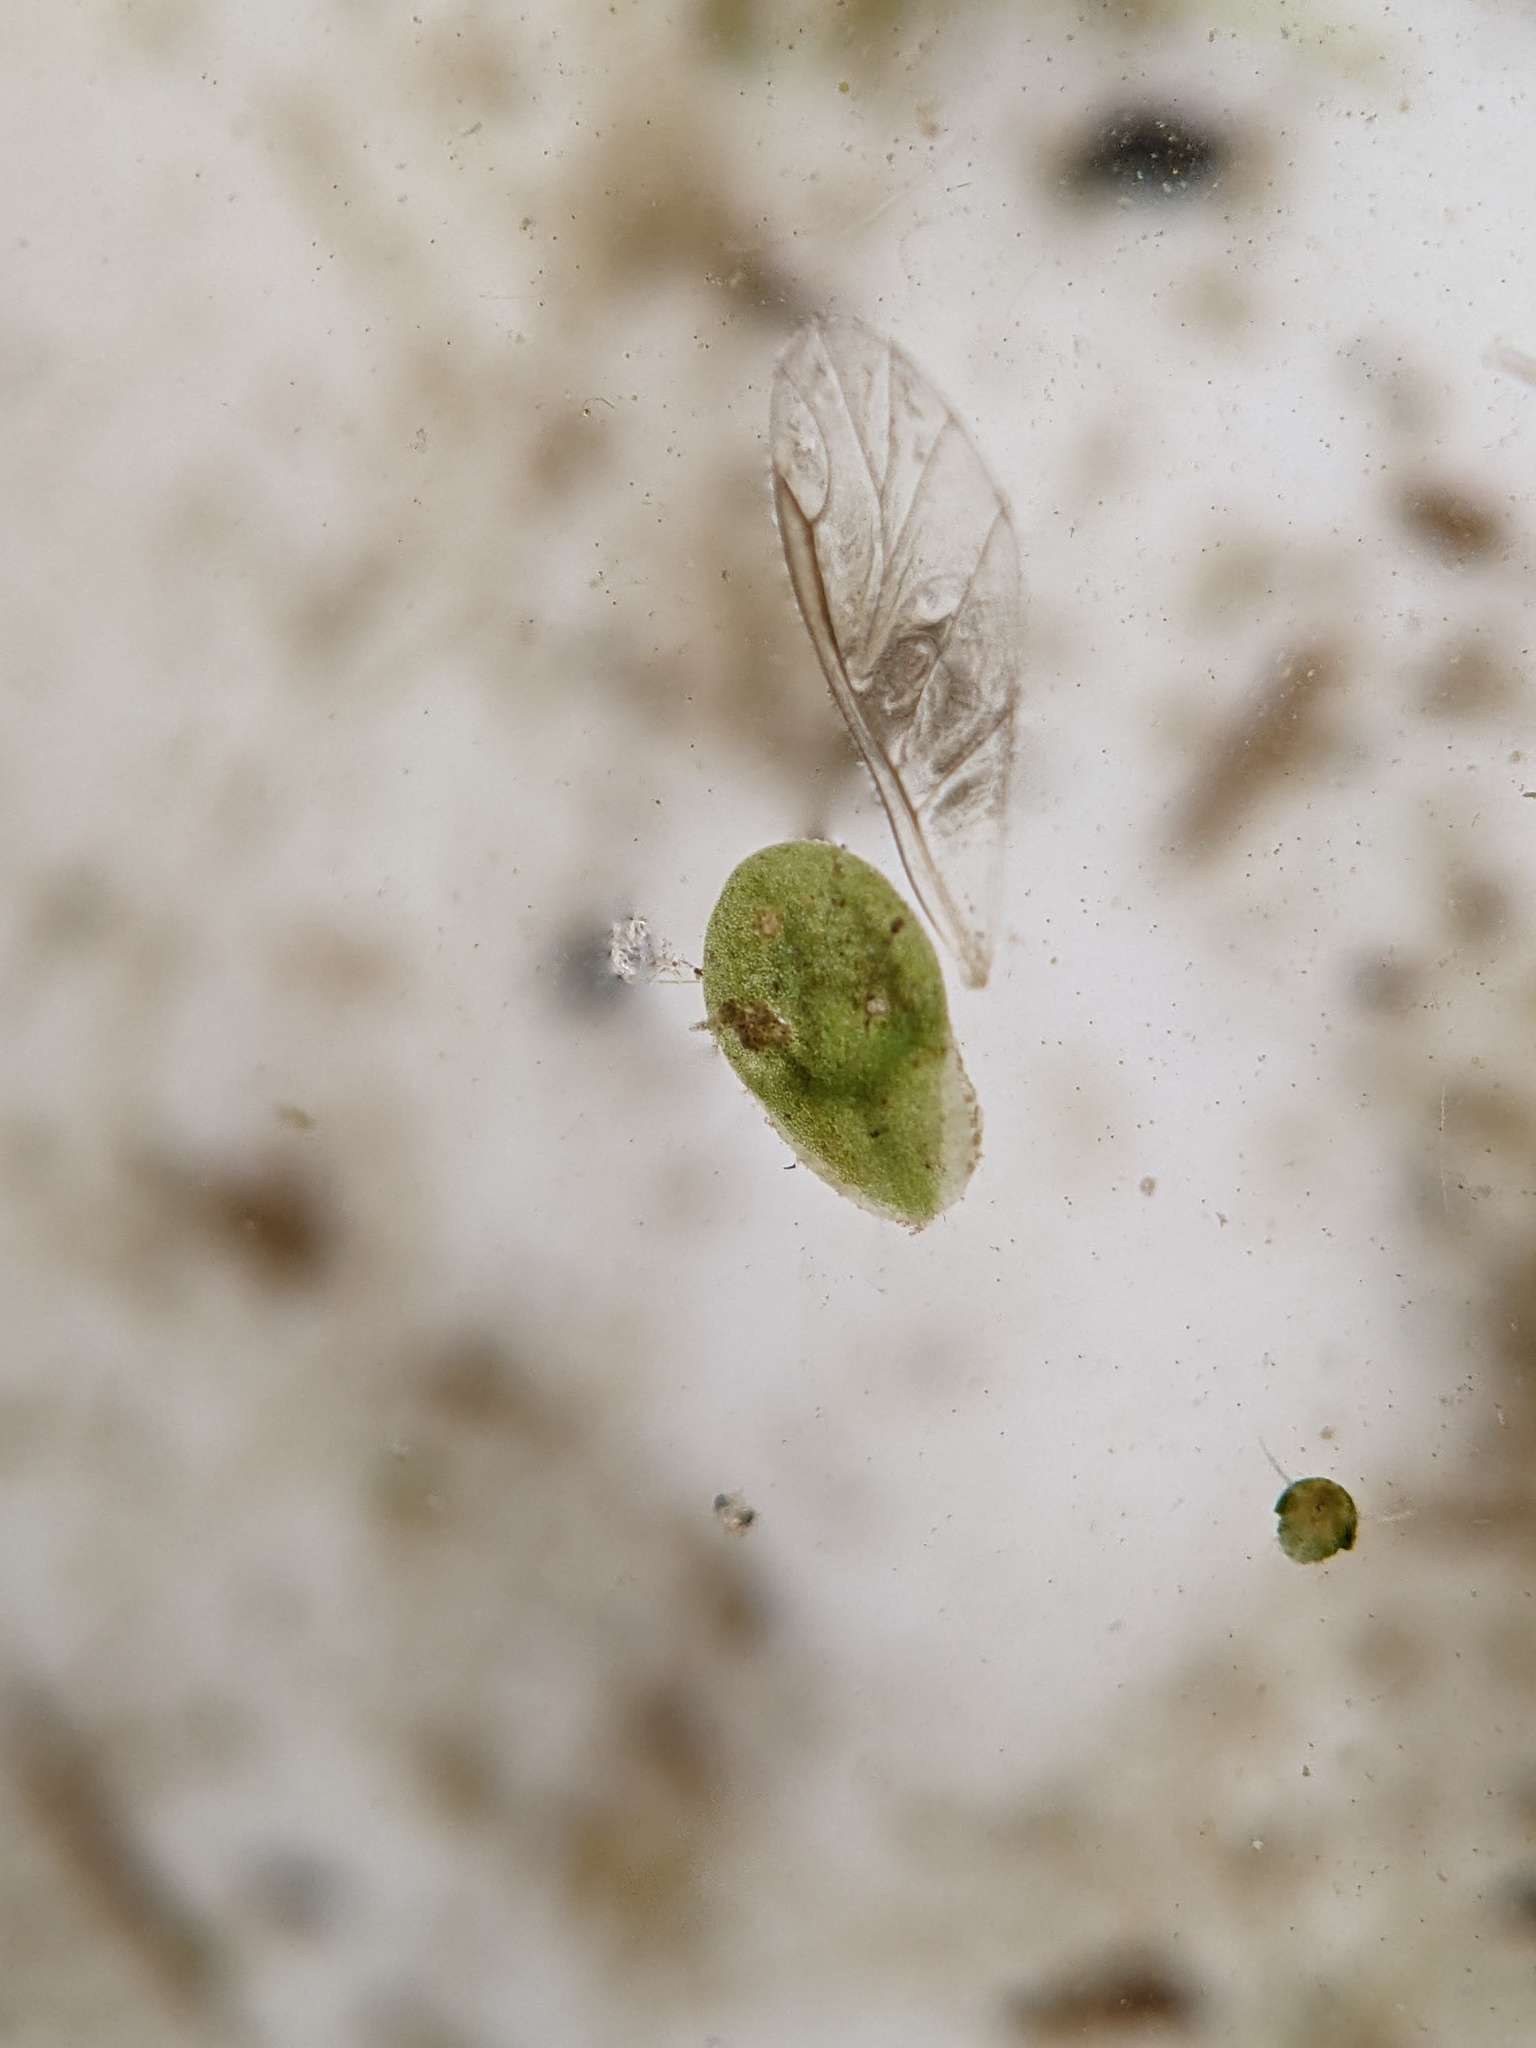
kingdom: Plantae
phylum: Tracheophyta
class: Liliopsida
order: Alismatales
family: Araceae
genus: Lemna
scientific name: Lemna minor
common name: Common duckweed
